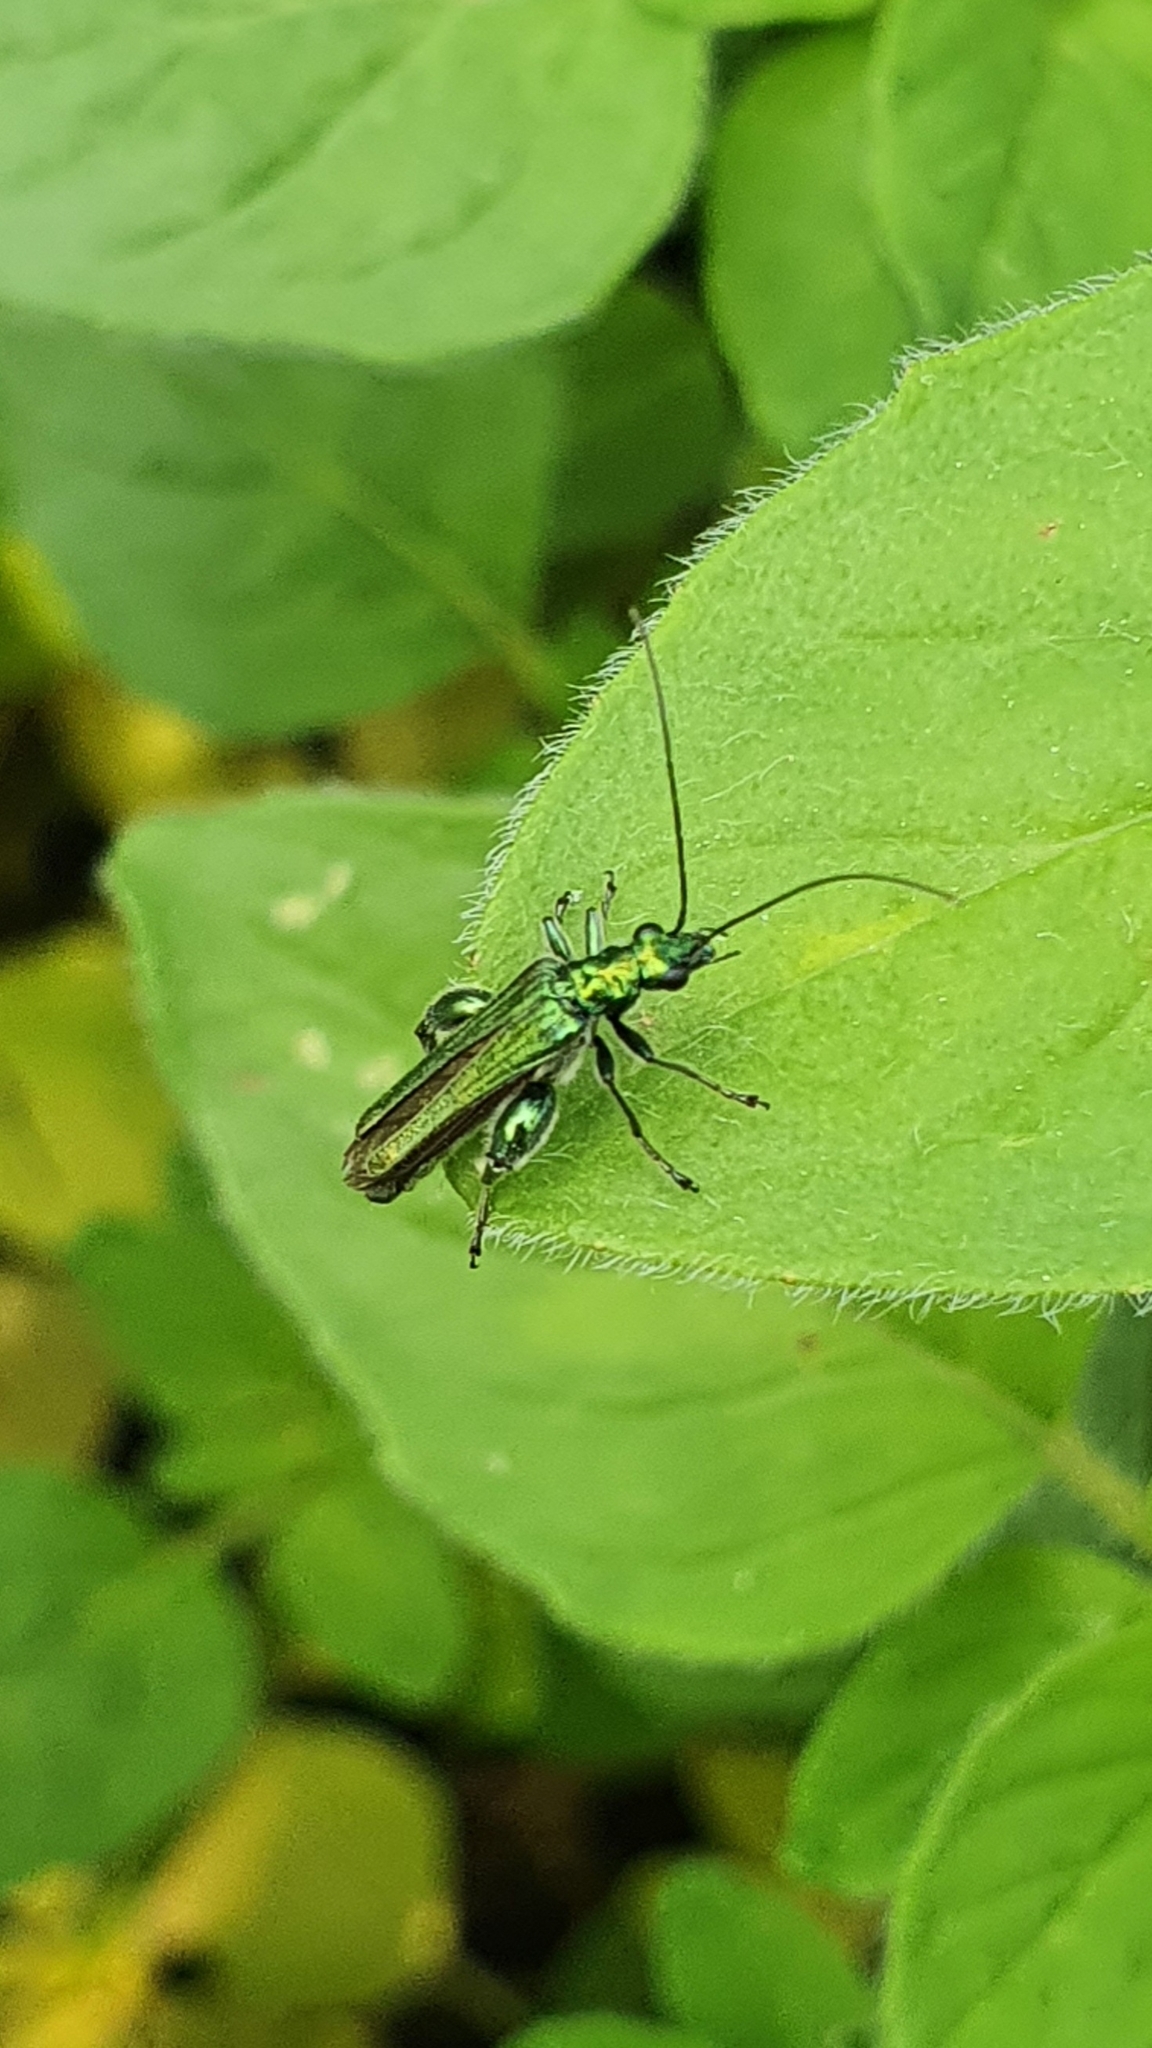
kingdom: Animalia
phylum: Arthropoda
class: Insecta
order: Coleoptera
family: Oedemeridae
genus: Oedemera
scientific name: Oedemera nobilis
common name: Swollen-thighed beetle
